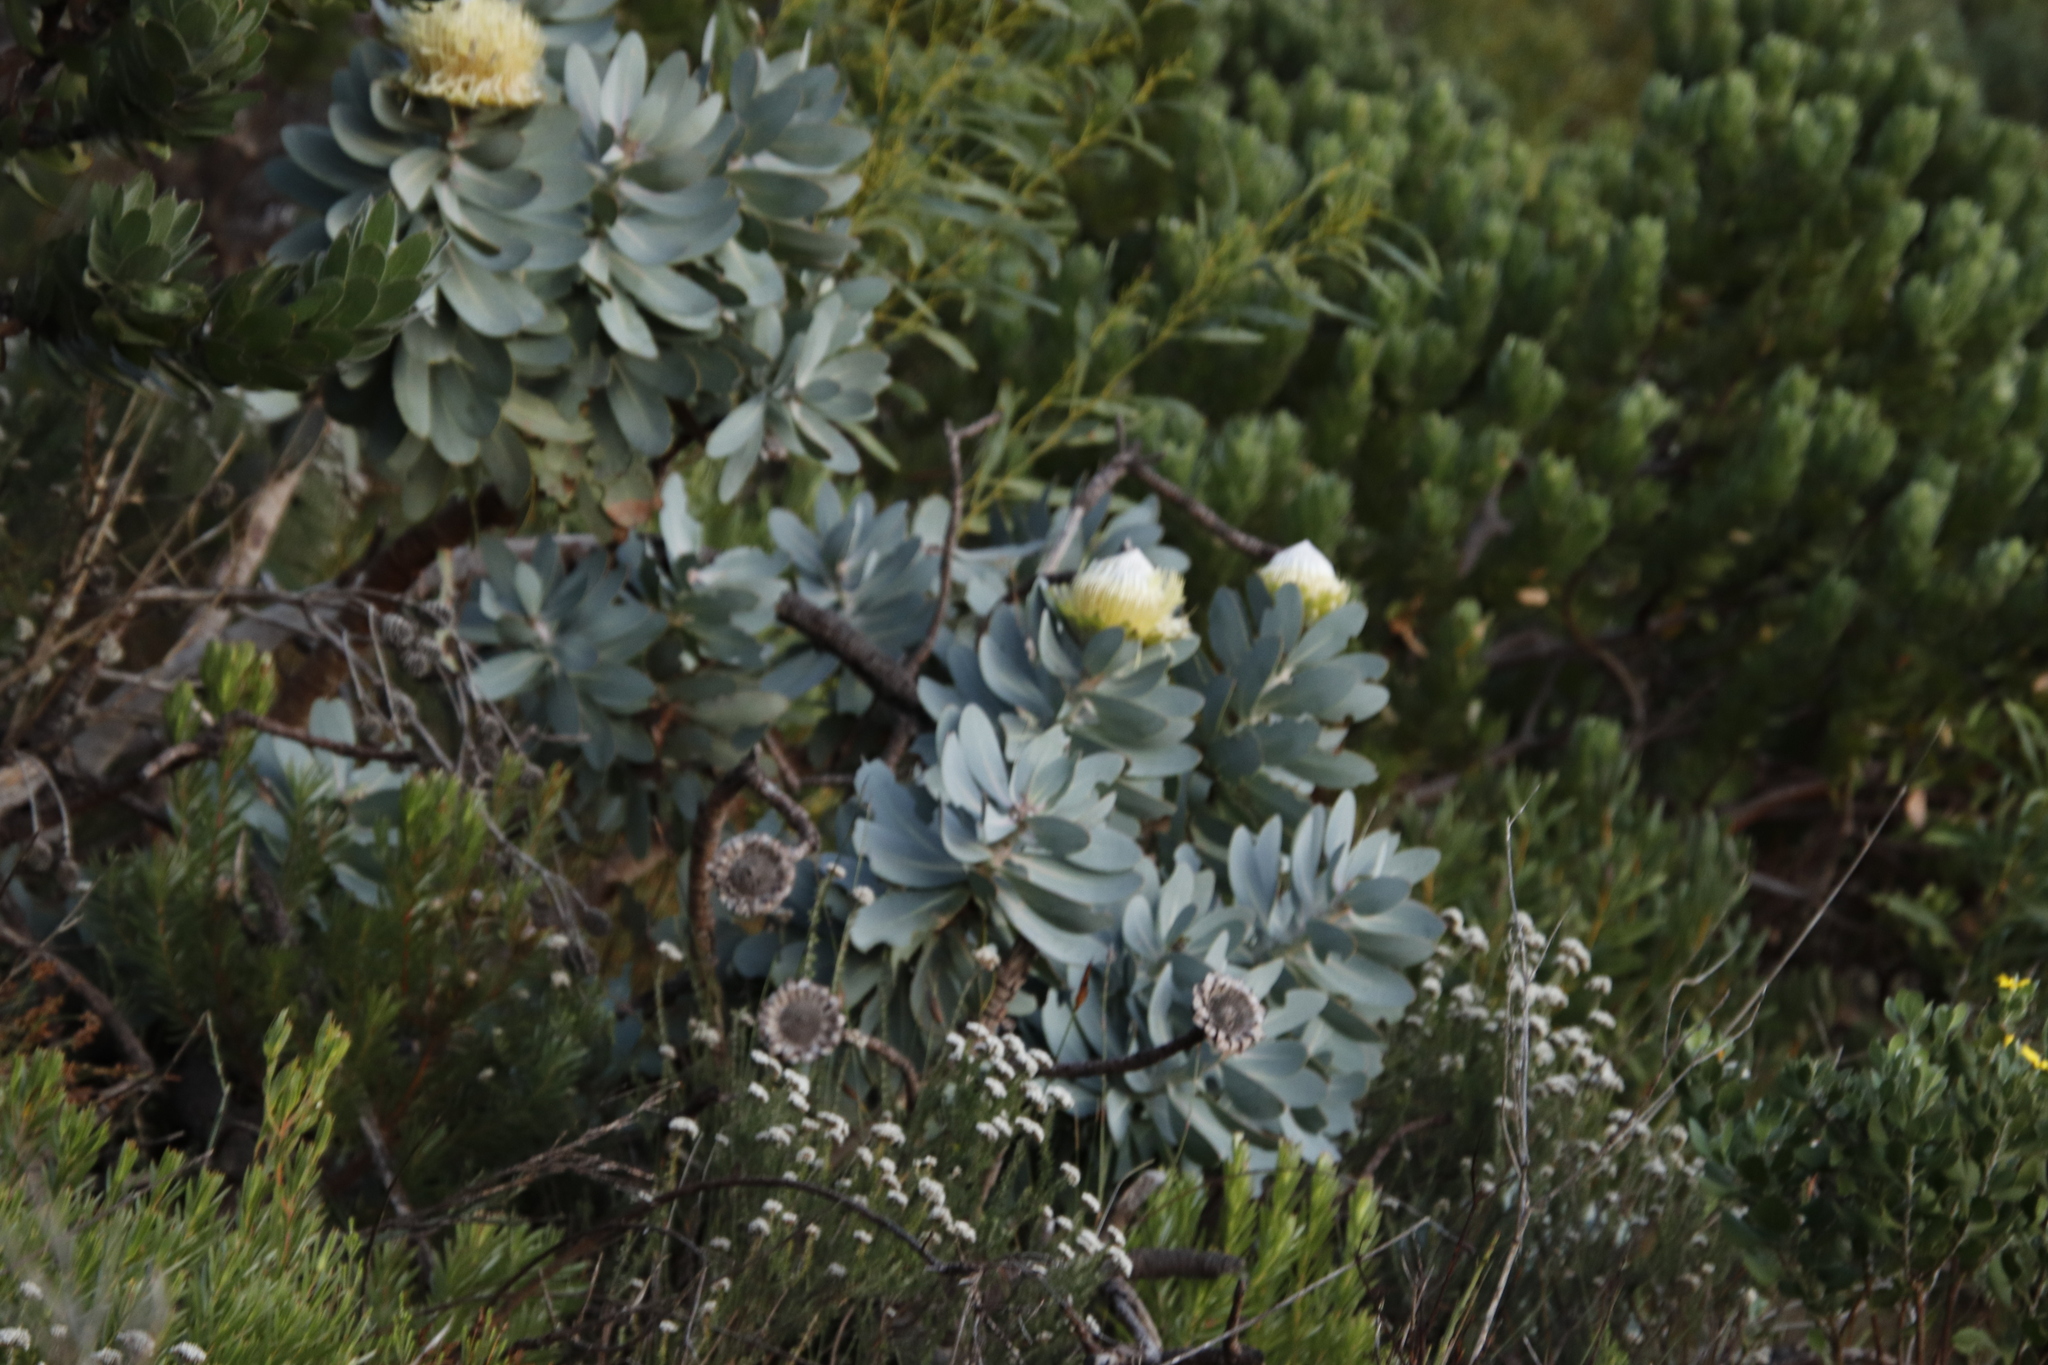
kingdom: Plantae
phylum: Tracheophyta
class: Magnoliopsida
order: Proteales
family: Proteaceae
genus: Protea
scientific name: Protea nitida
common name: Tree protea
